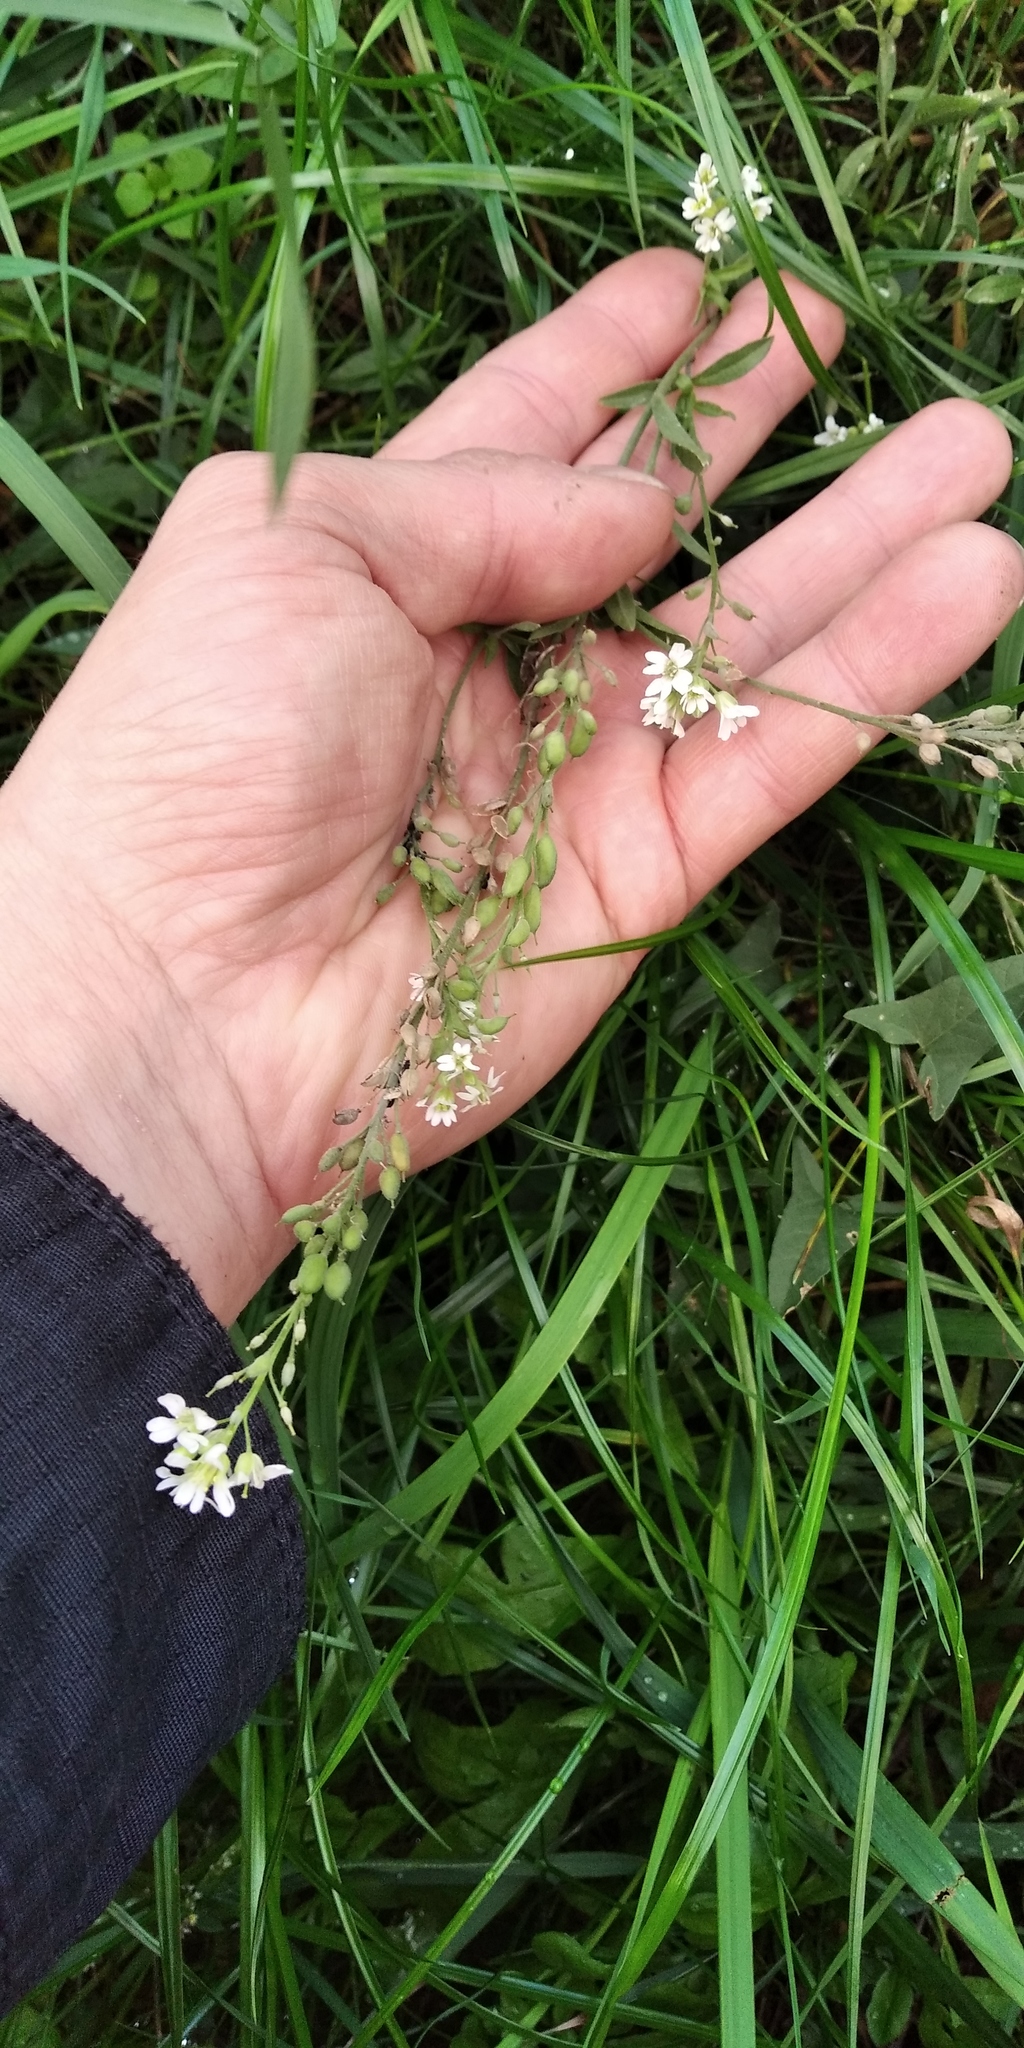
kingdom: Plantae
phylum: Tracheophyta
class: Magnoliopsida
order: Brassicales
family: Brassicaceae
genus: Berteroa
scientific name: Berteroa incana
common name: Hoary alison
